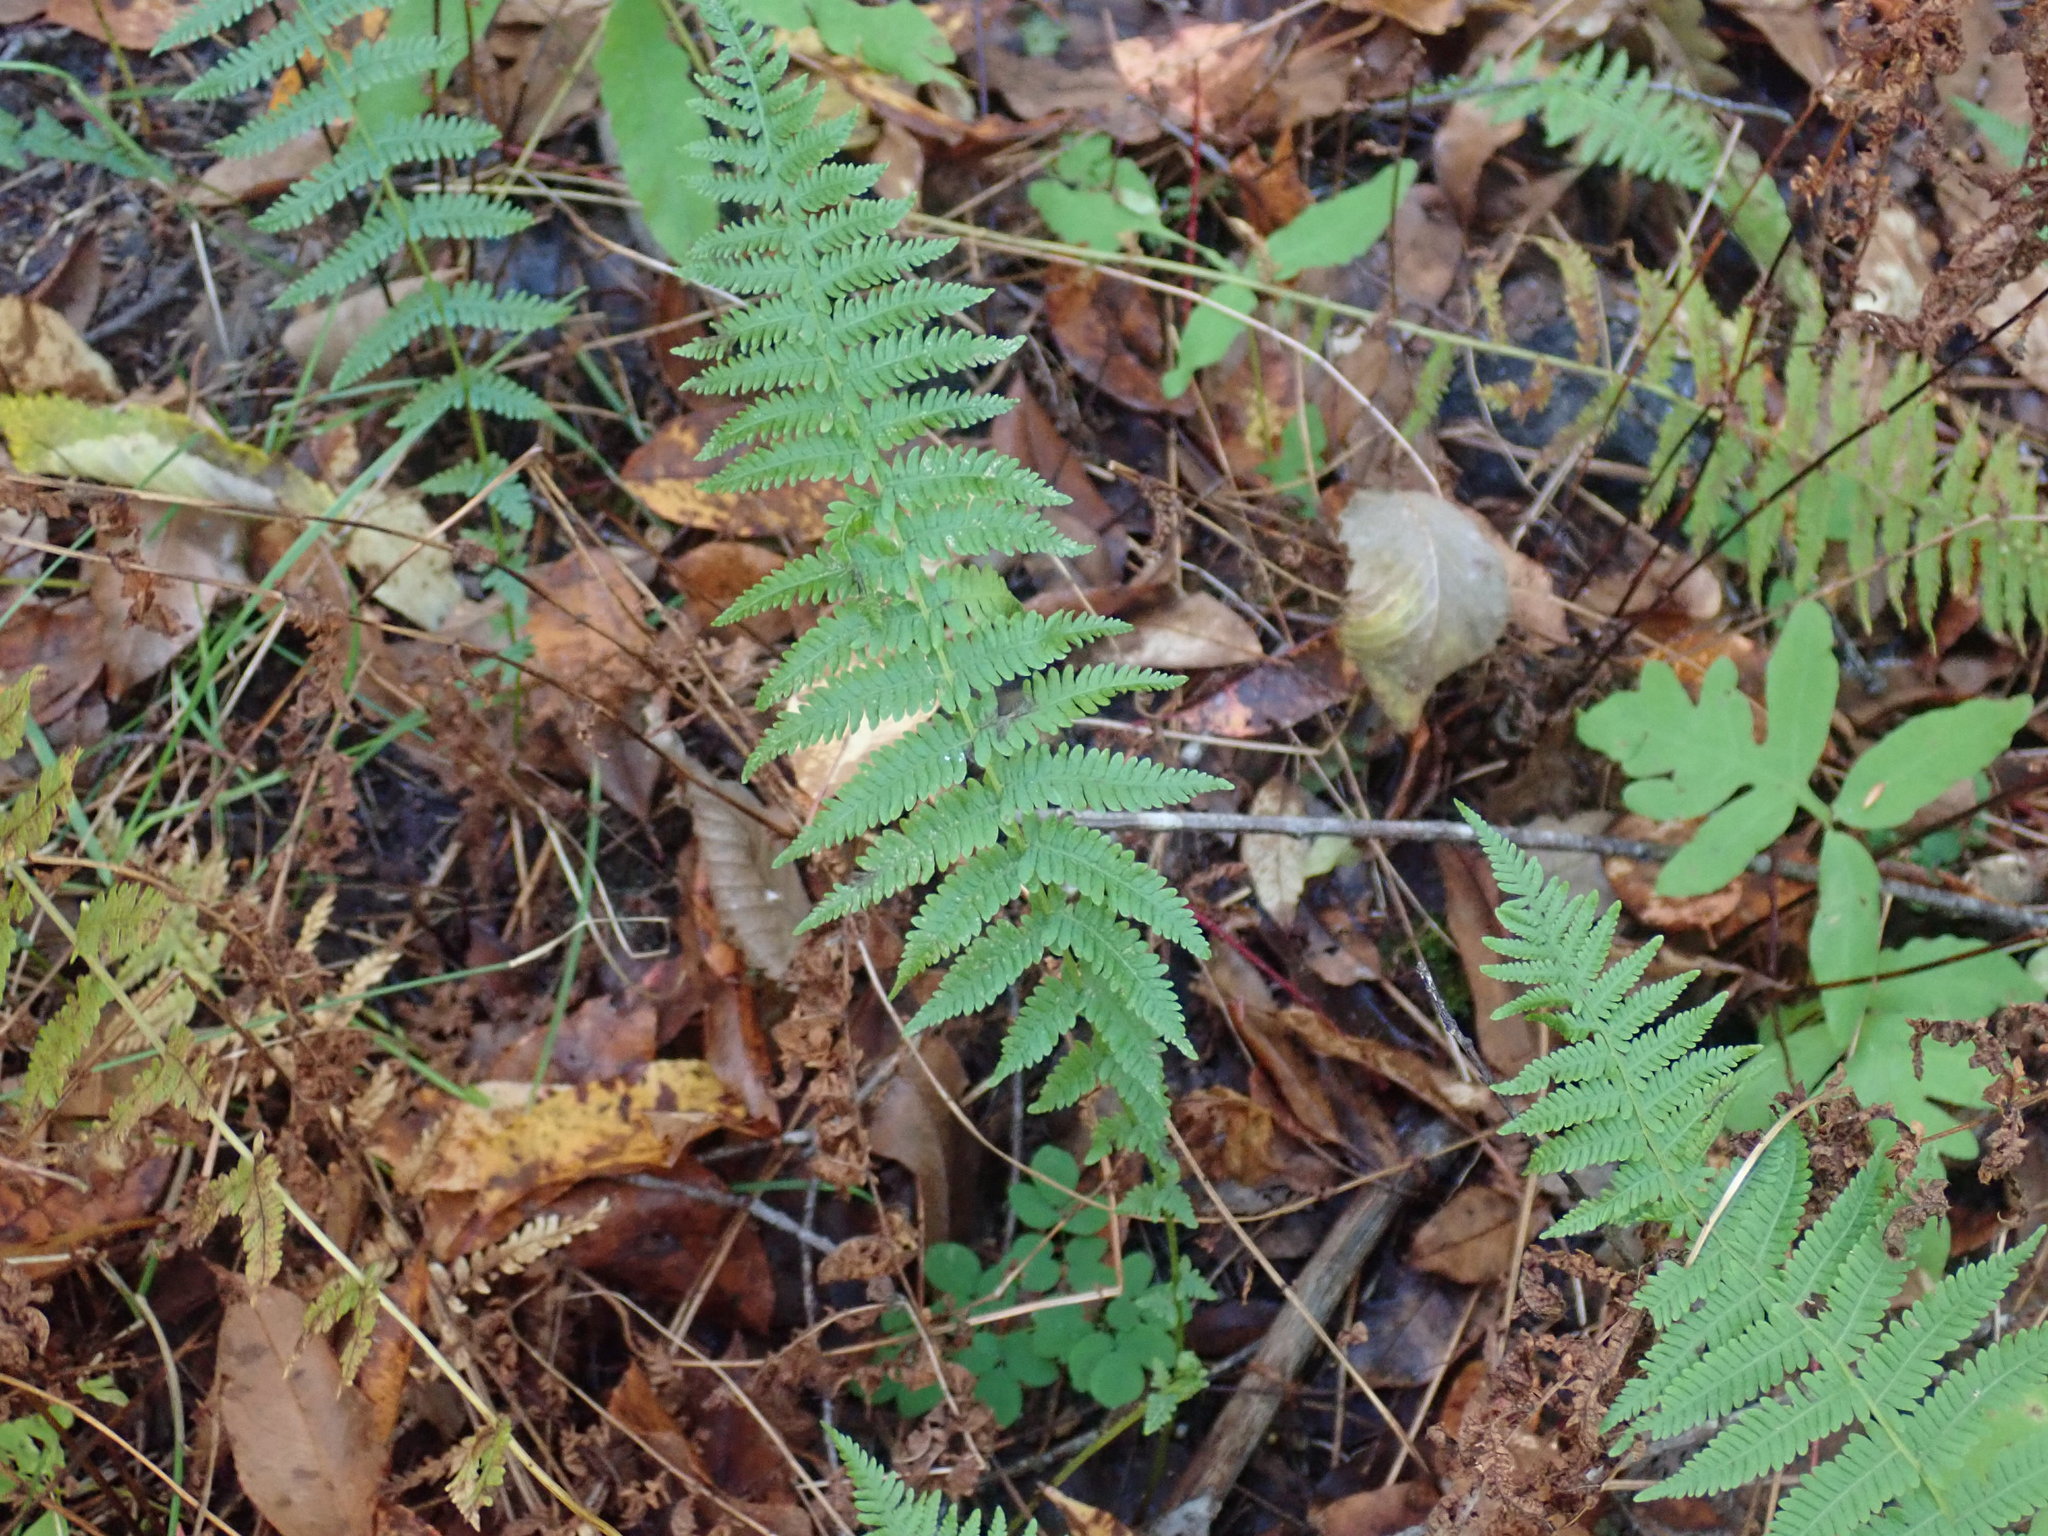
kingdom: Plantae
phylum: Tracheophyta
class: Polypodiopsida
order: Polypodiales
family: Thelypteridaceae
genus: Amauropelta
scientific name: Amauropelta noveboracensis
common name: New york fern
